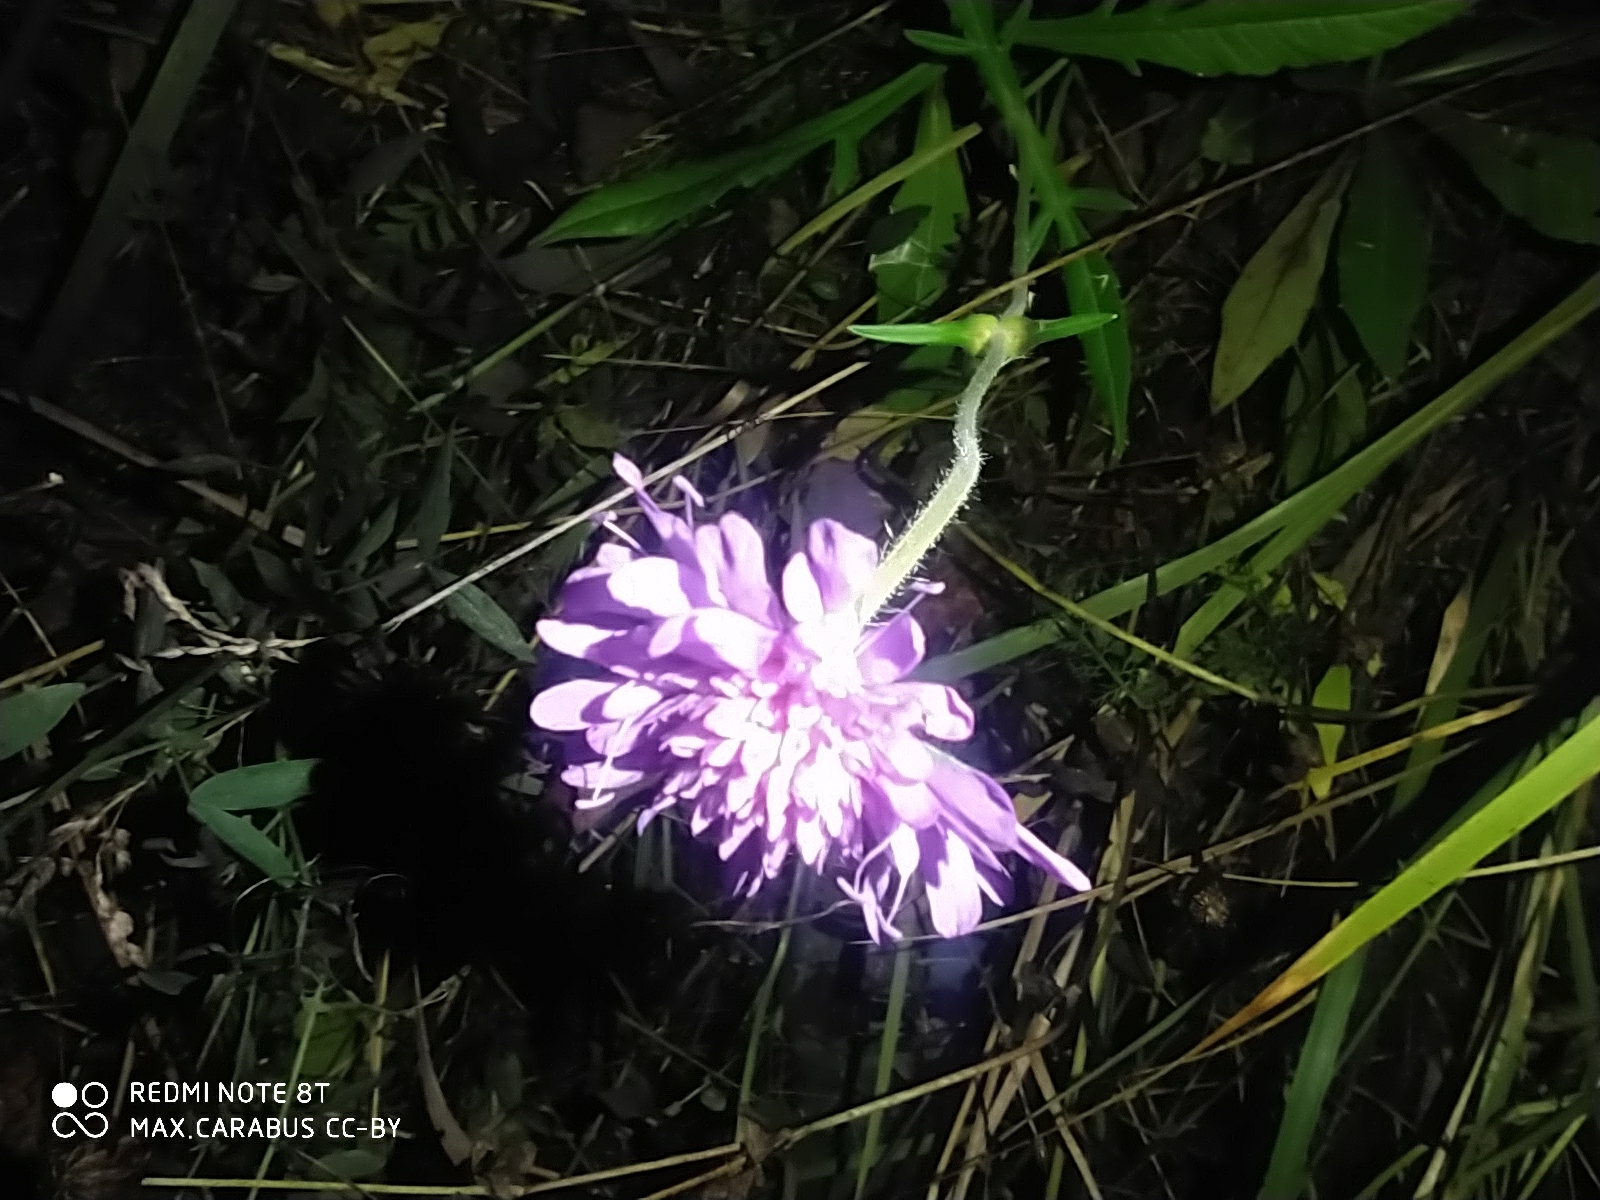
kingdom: Plantae
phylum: Tracheophyta
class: Magnoliopsida
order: Dipsacales
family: Caprifoliaceae
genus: Knautia
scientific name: Knautia arvensis
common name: Field scabiosa
